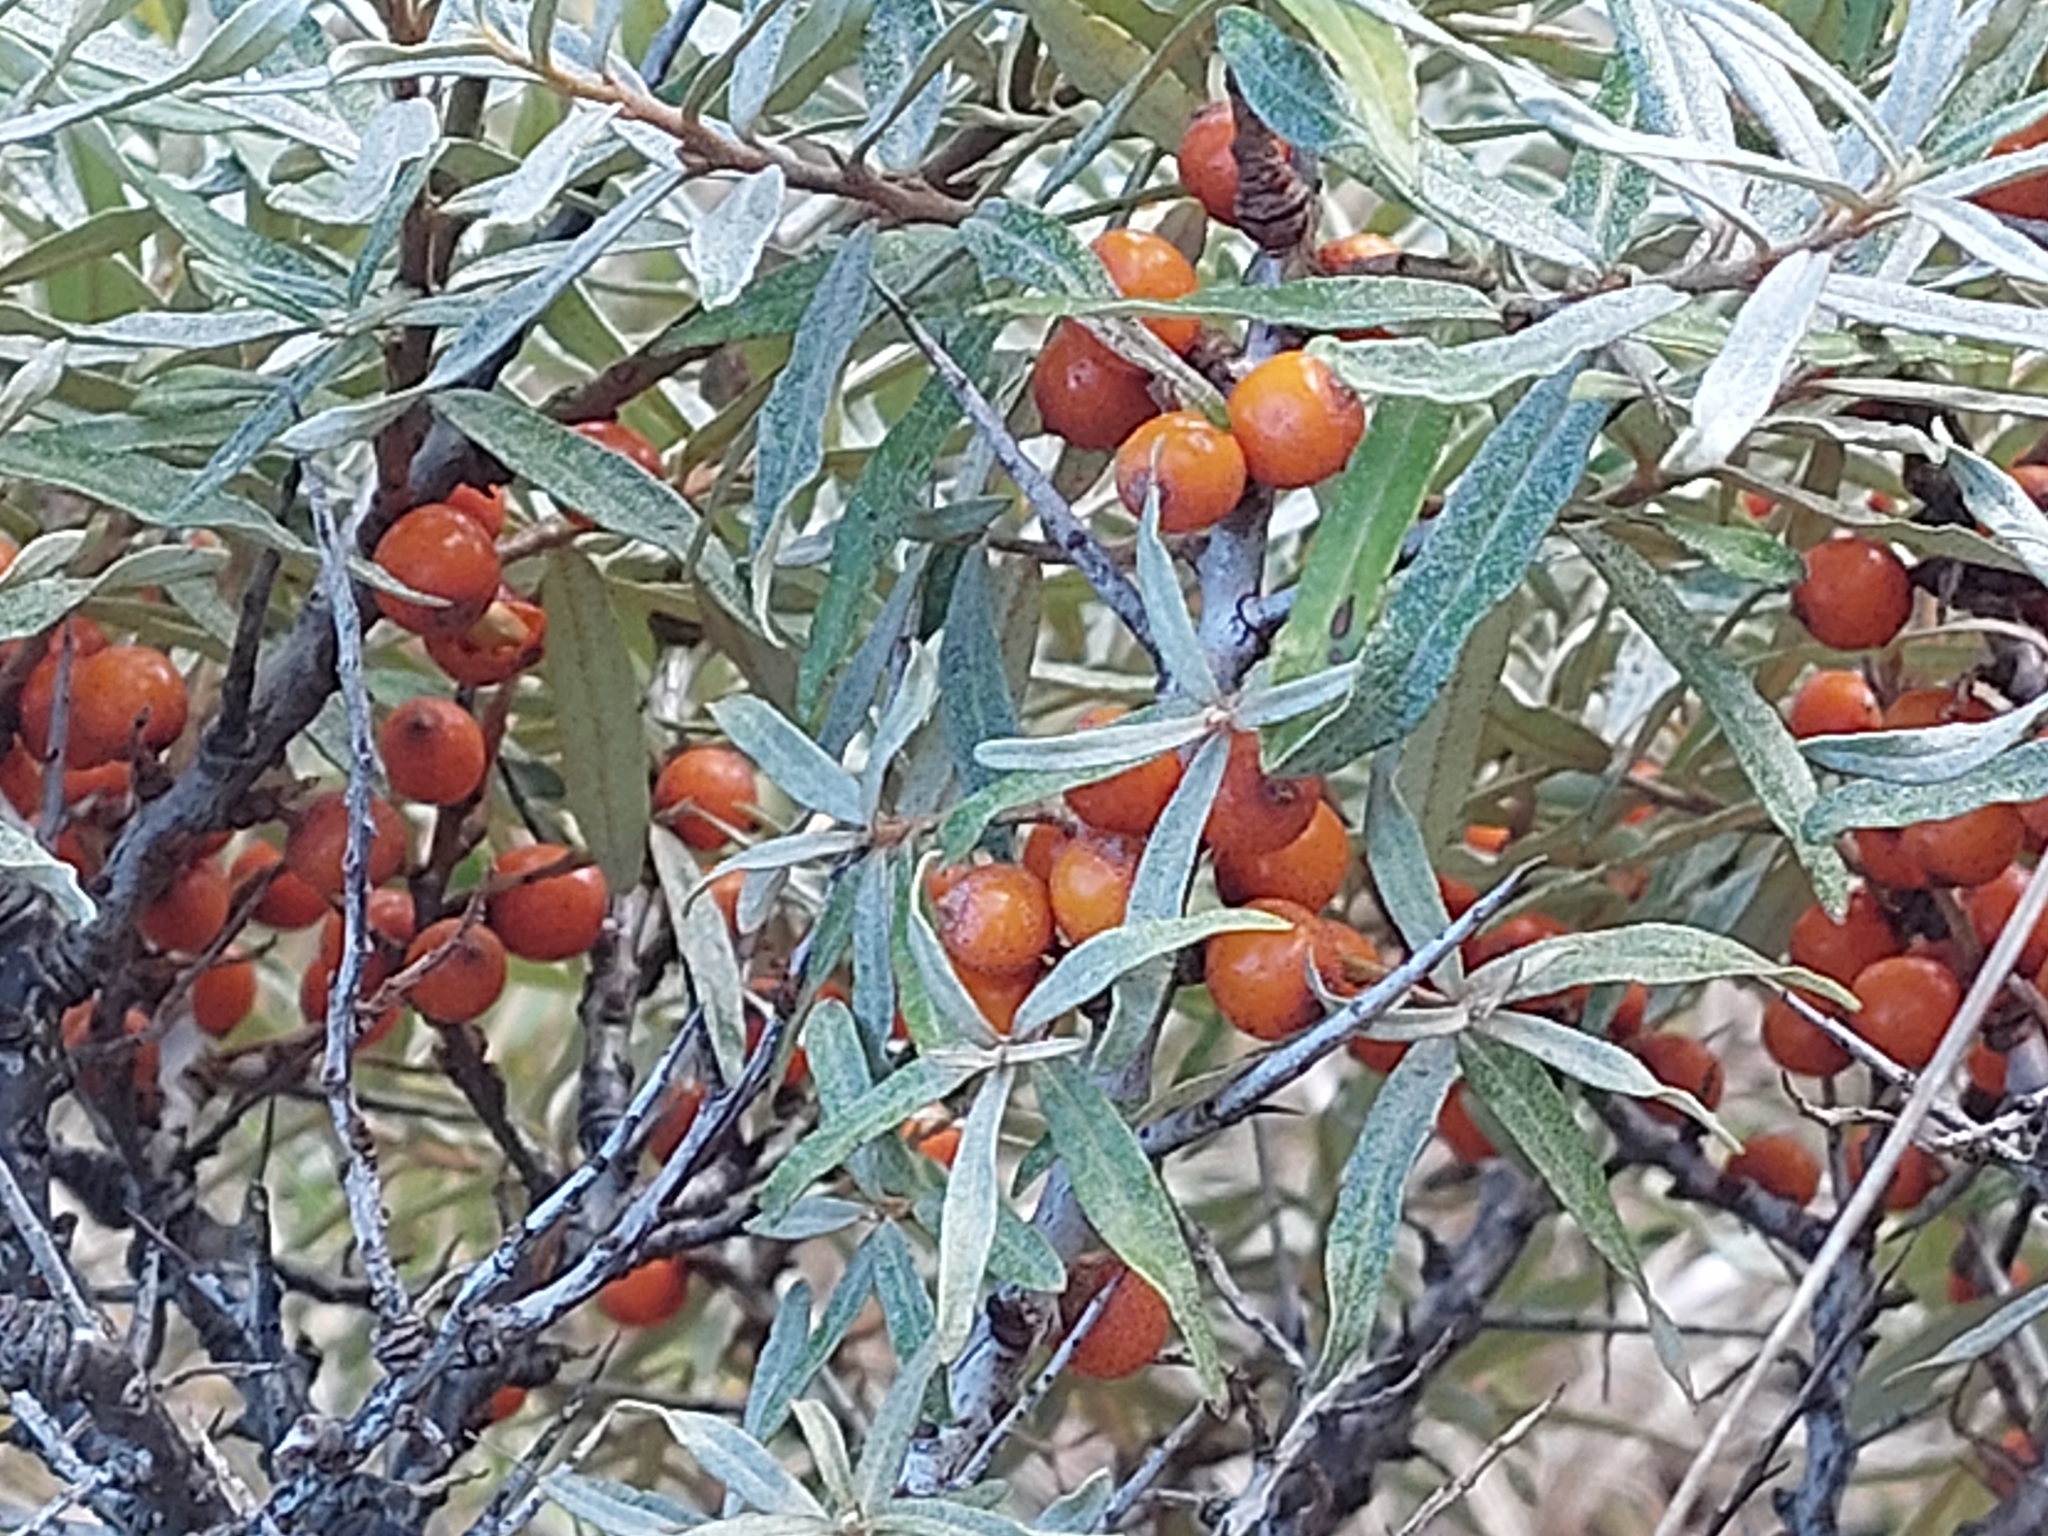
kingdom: Plantae
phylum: Tracheophyta
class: Magnoliopsida
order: Rosales
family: Elaeagnaceae
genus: Hippophae
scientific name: Hippophae rhamnoides
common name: Sea-buckthorn
